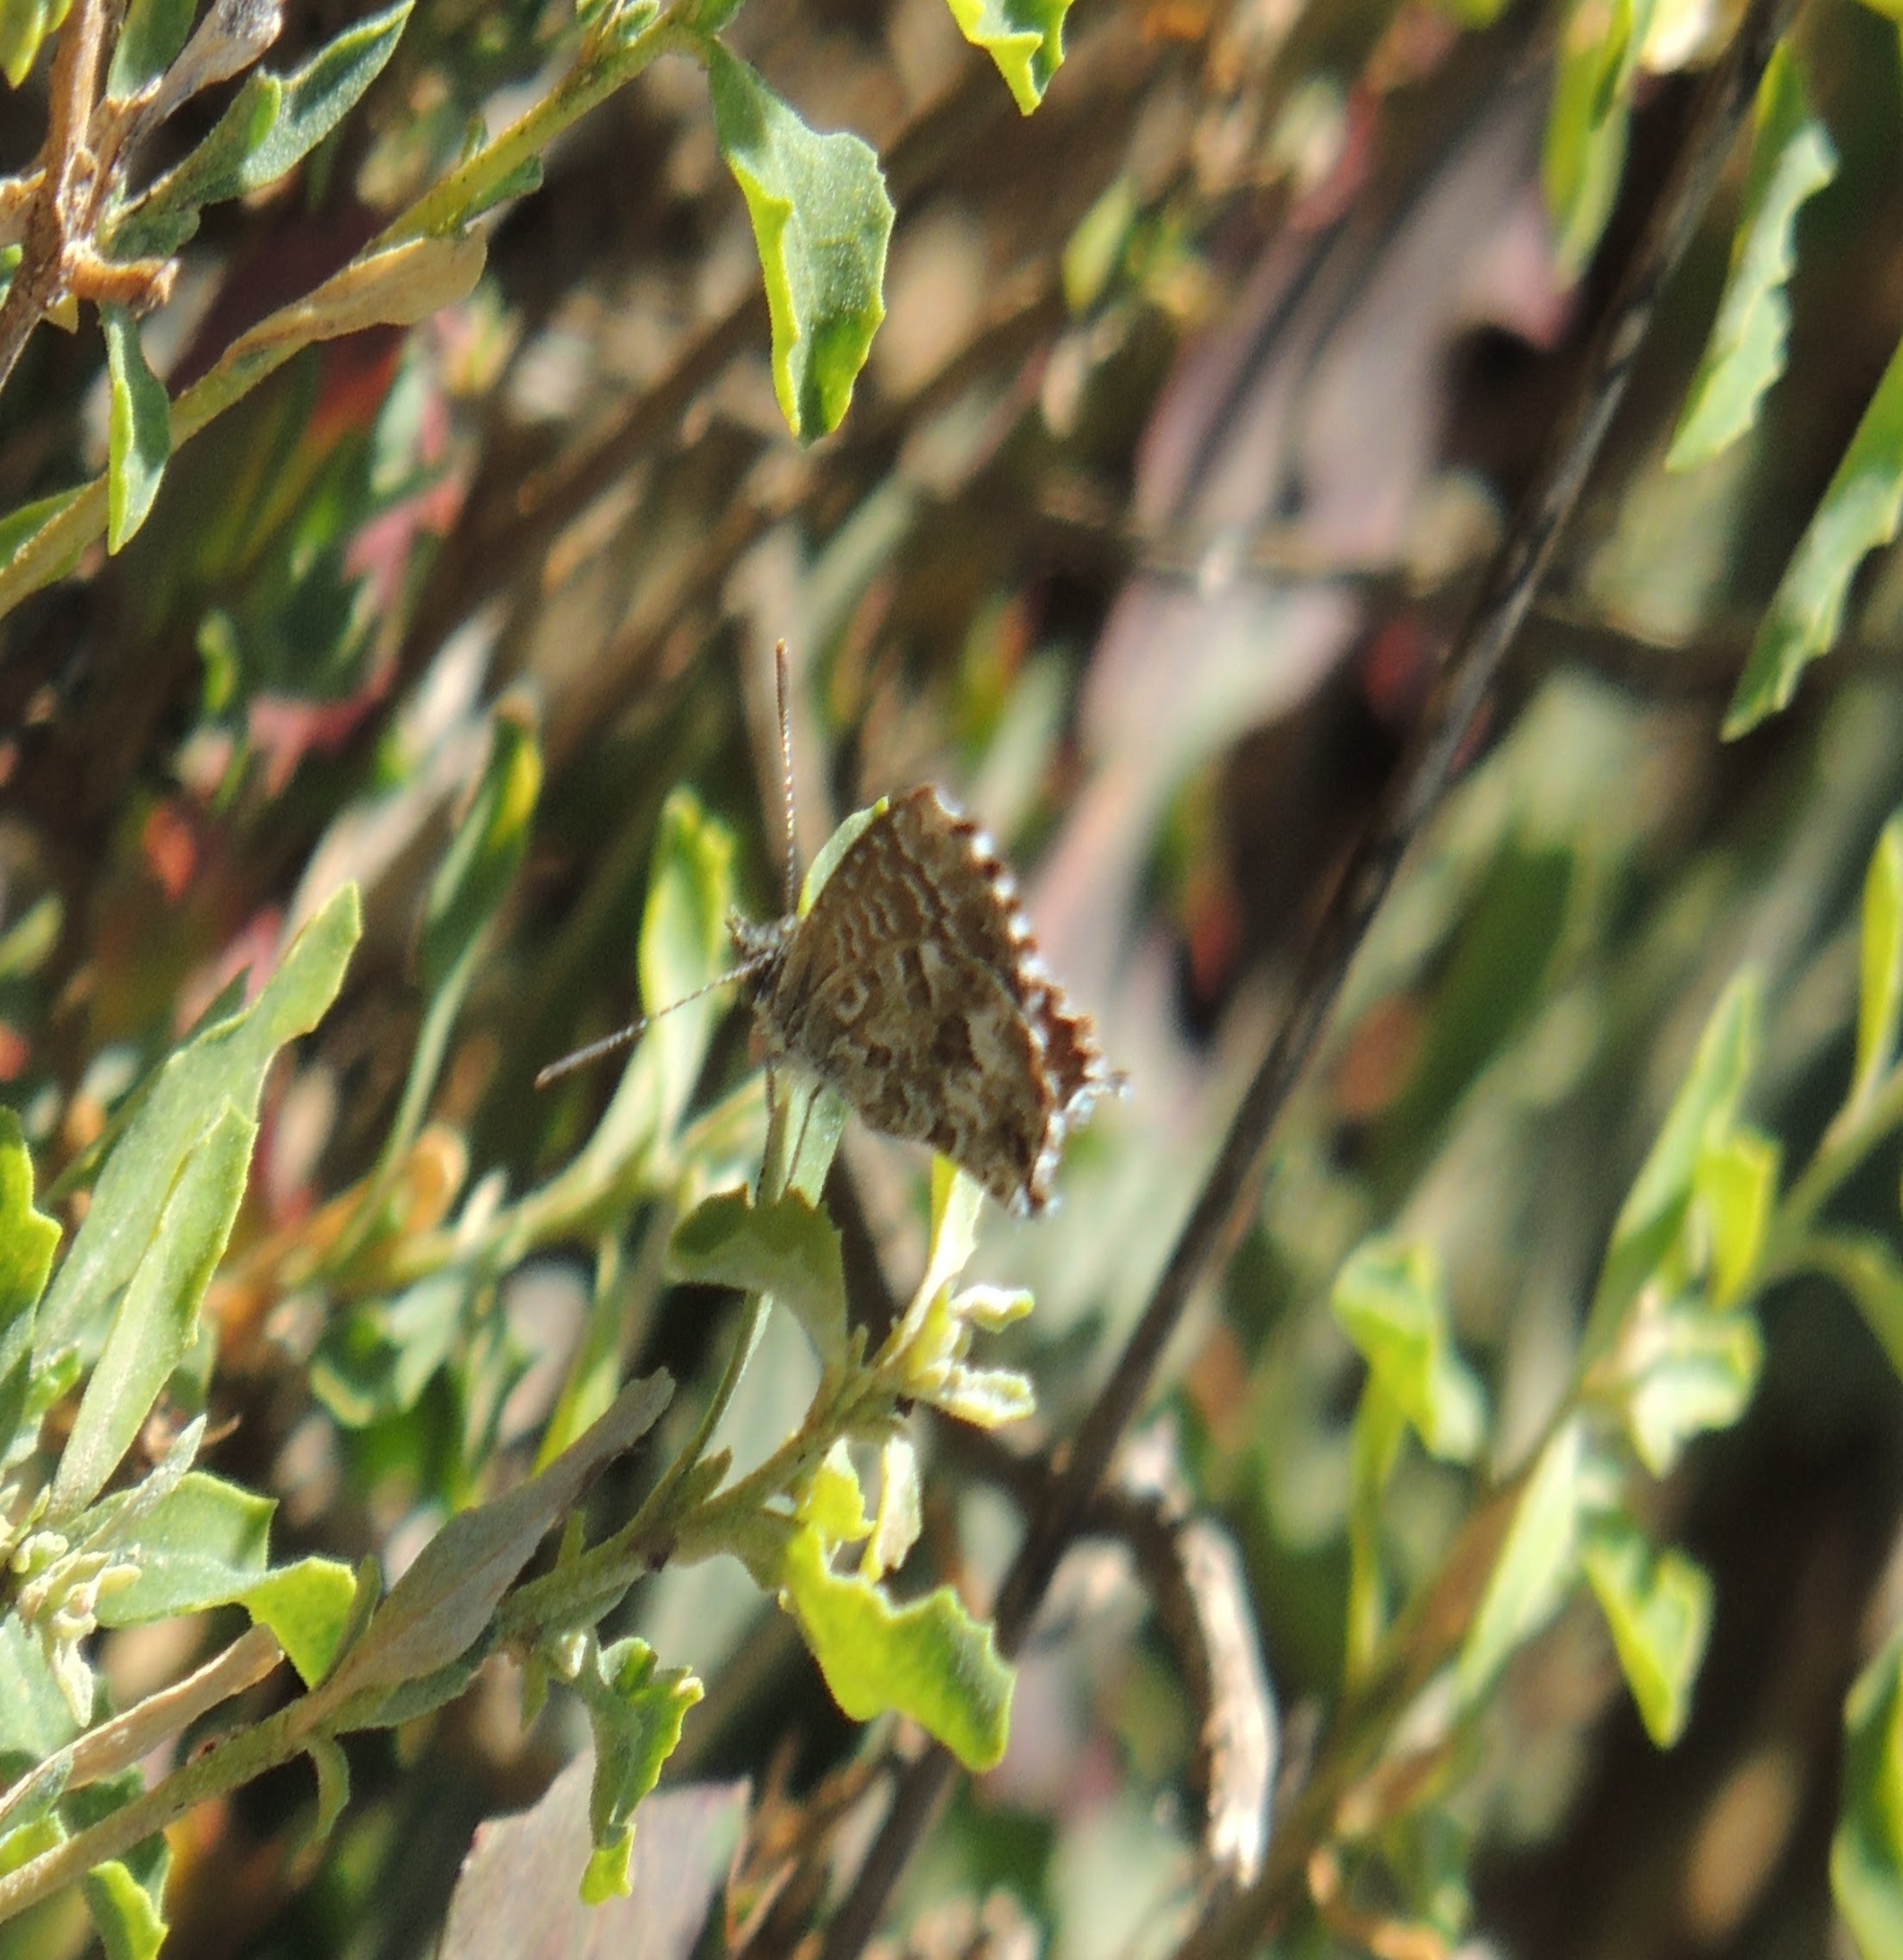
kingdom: Animalia
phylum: Arthropoda
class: Insecta
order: Lepidoptera
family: Lycaenidae
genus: Theclinesthes
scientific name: Theclinesthes serpentata
